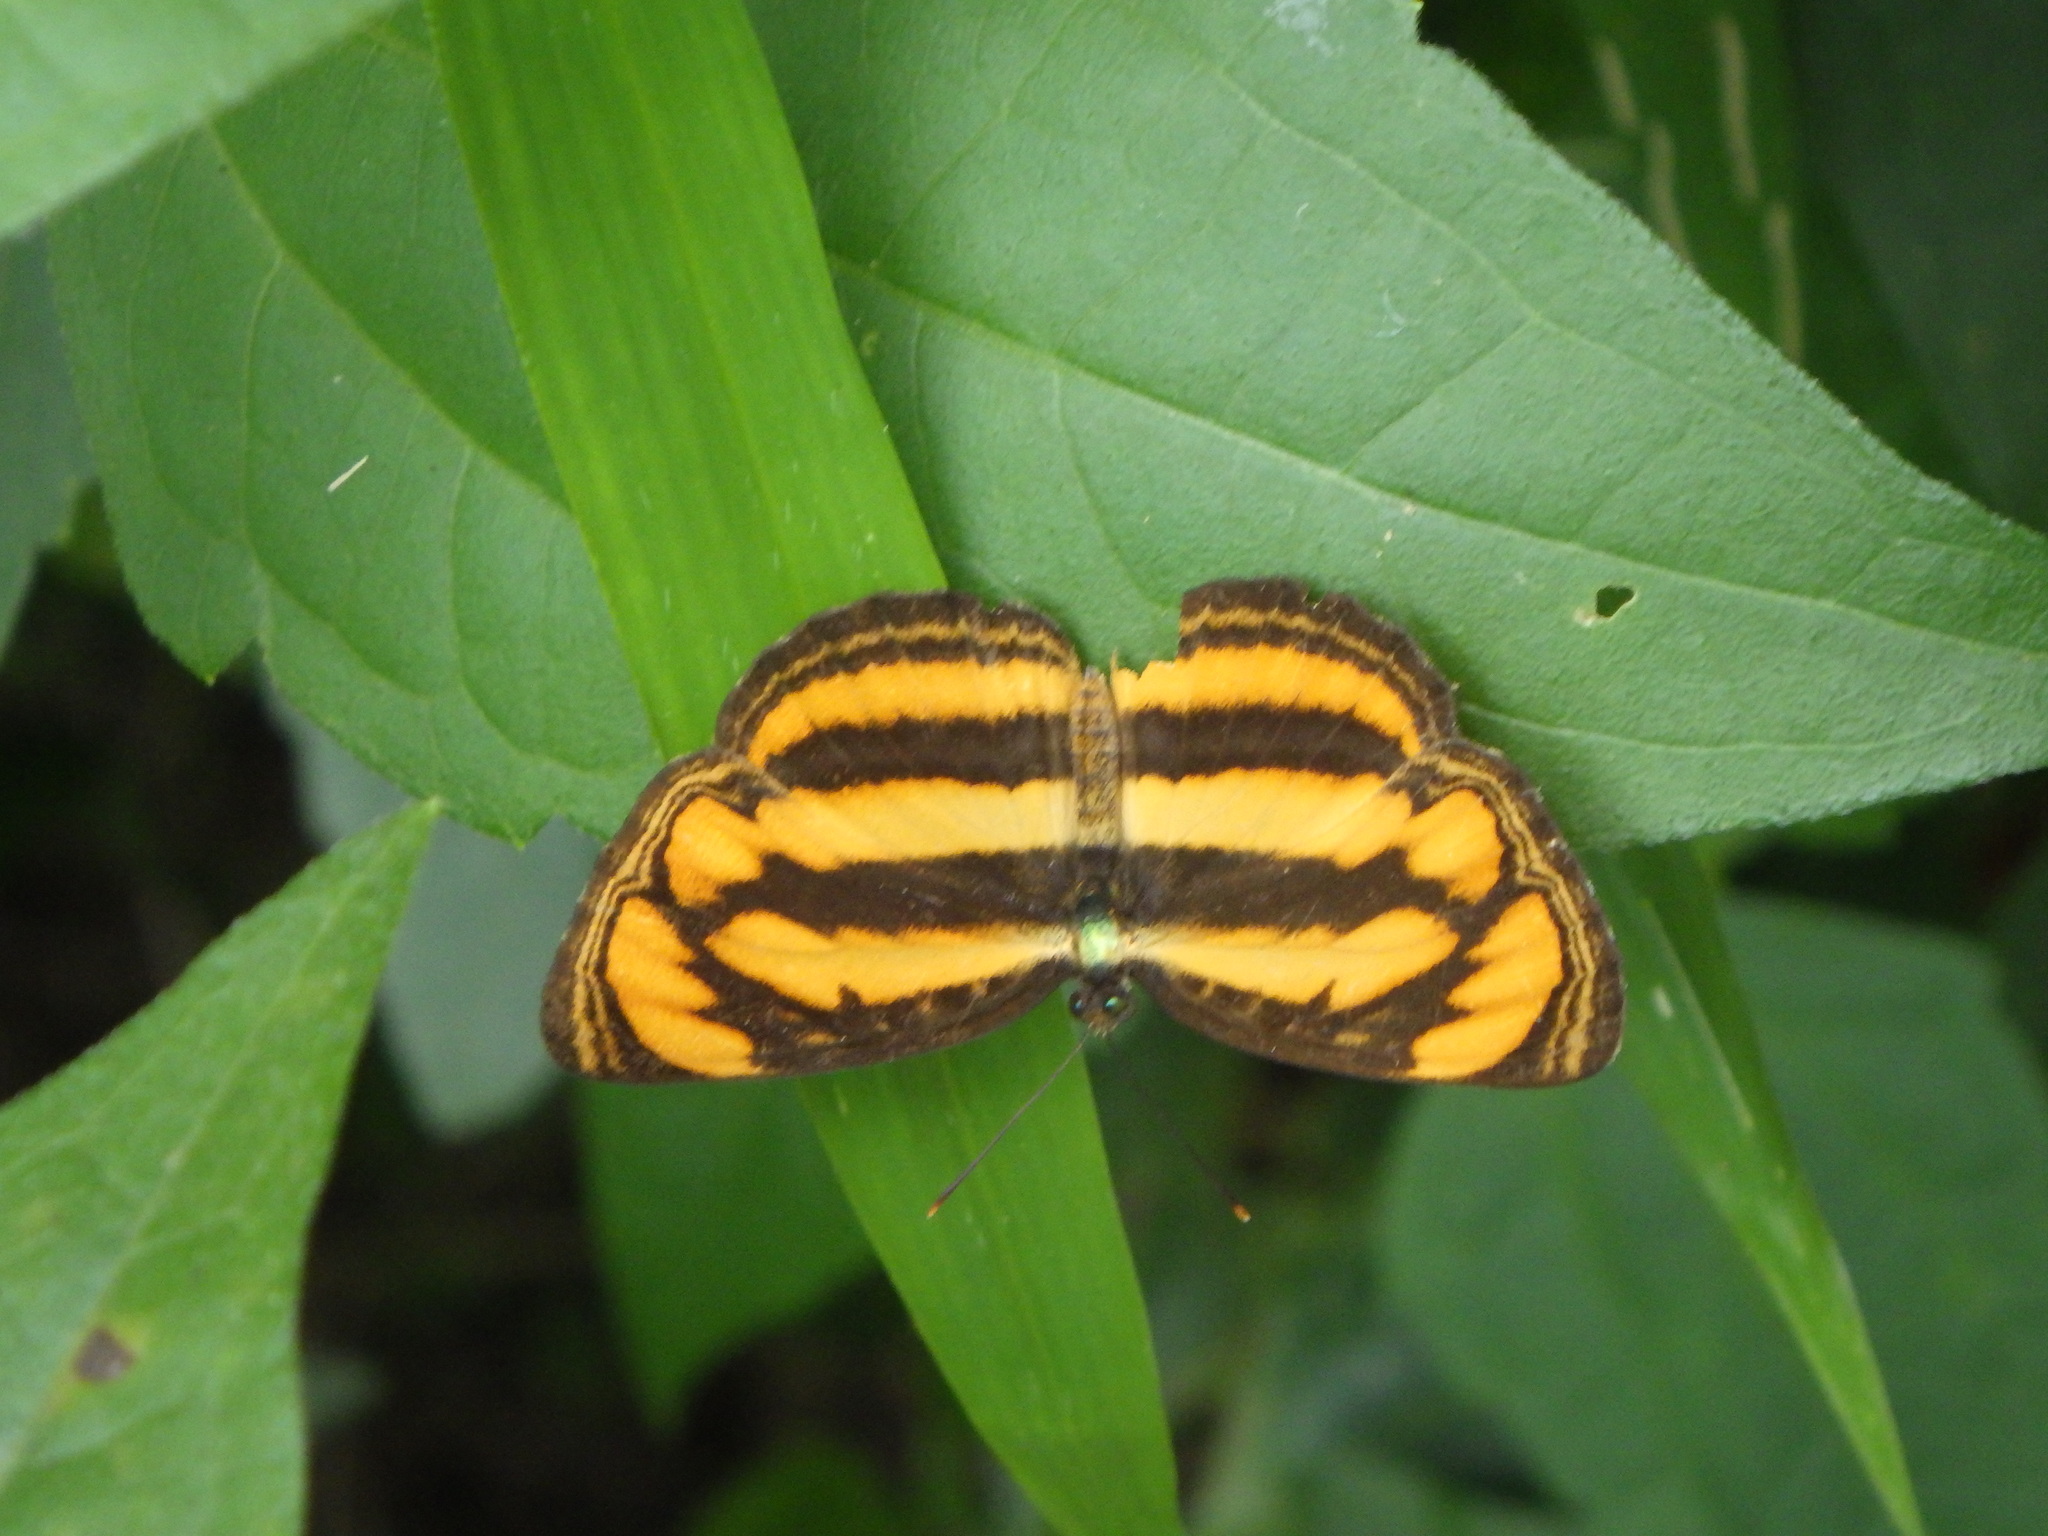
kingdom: Animalia
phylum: Arthropoda
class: Insecta
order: Lepidoptera
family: Nymphalidae
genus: Pantoporia
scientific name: Pantoporia paraka
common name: Perak lascar
